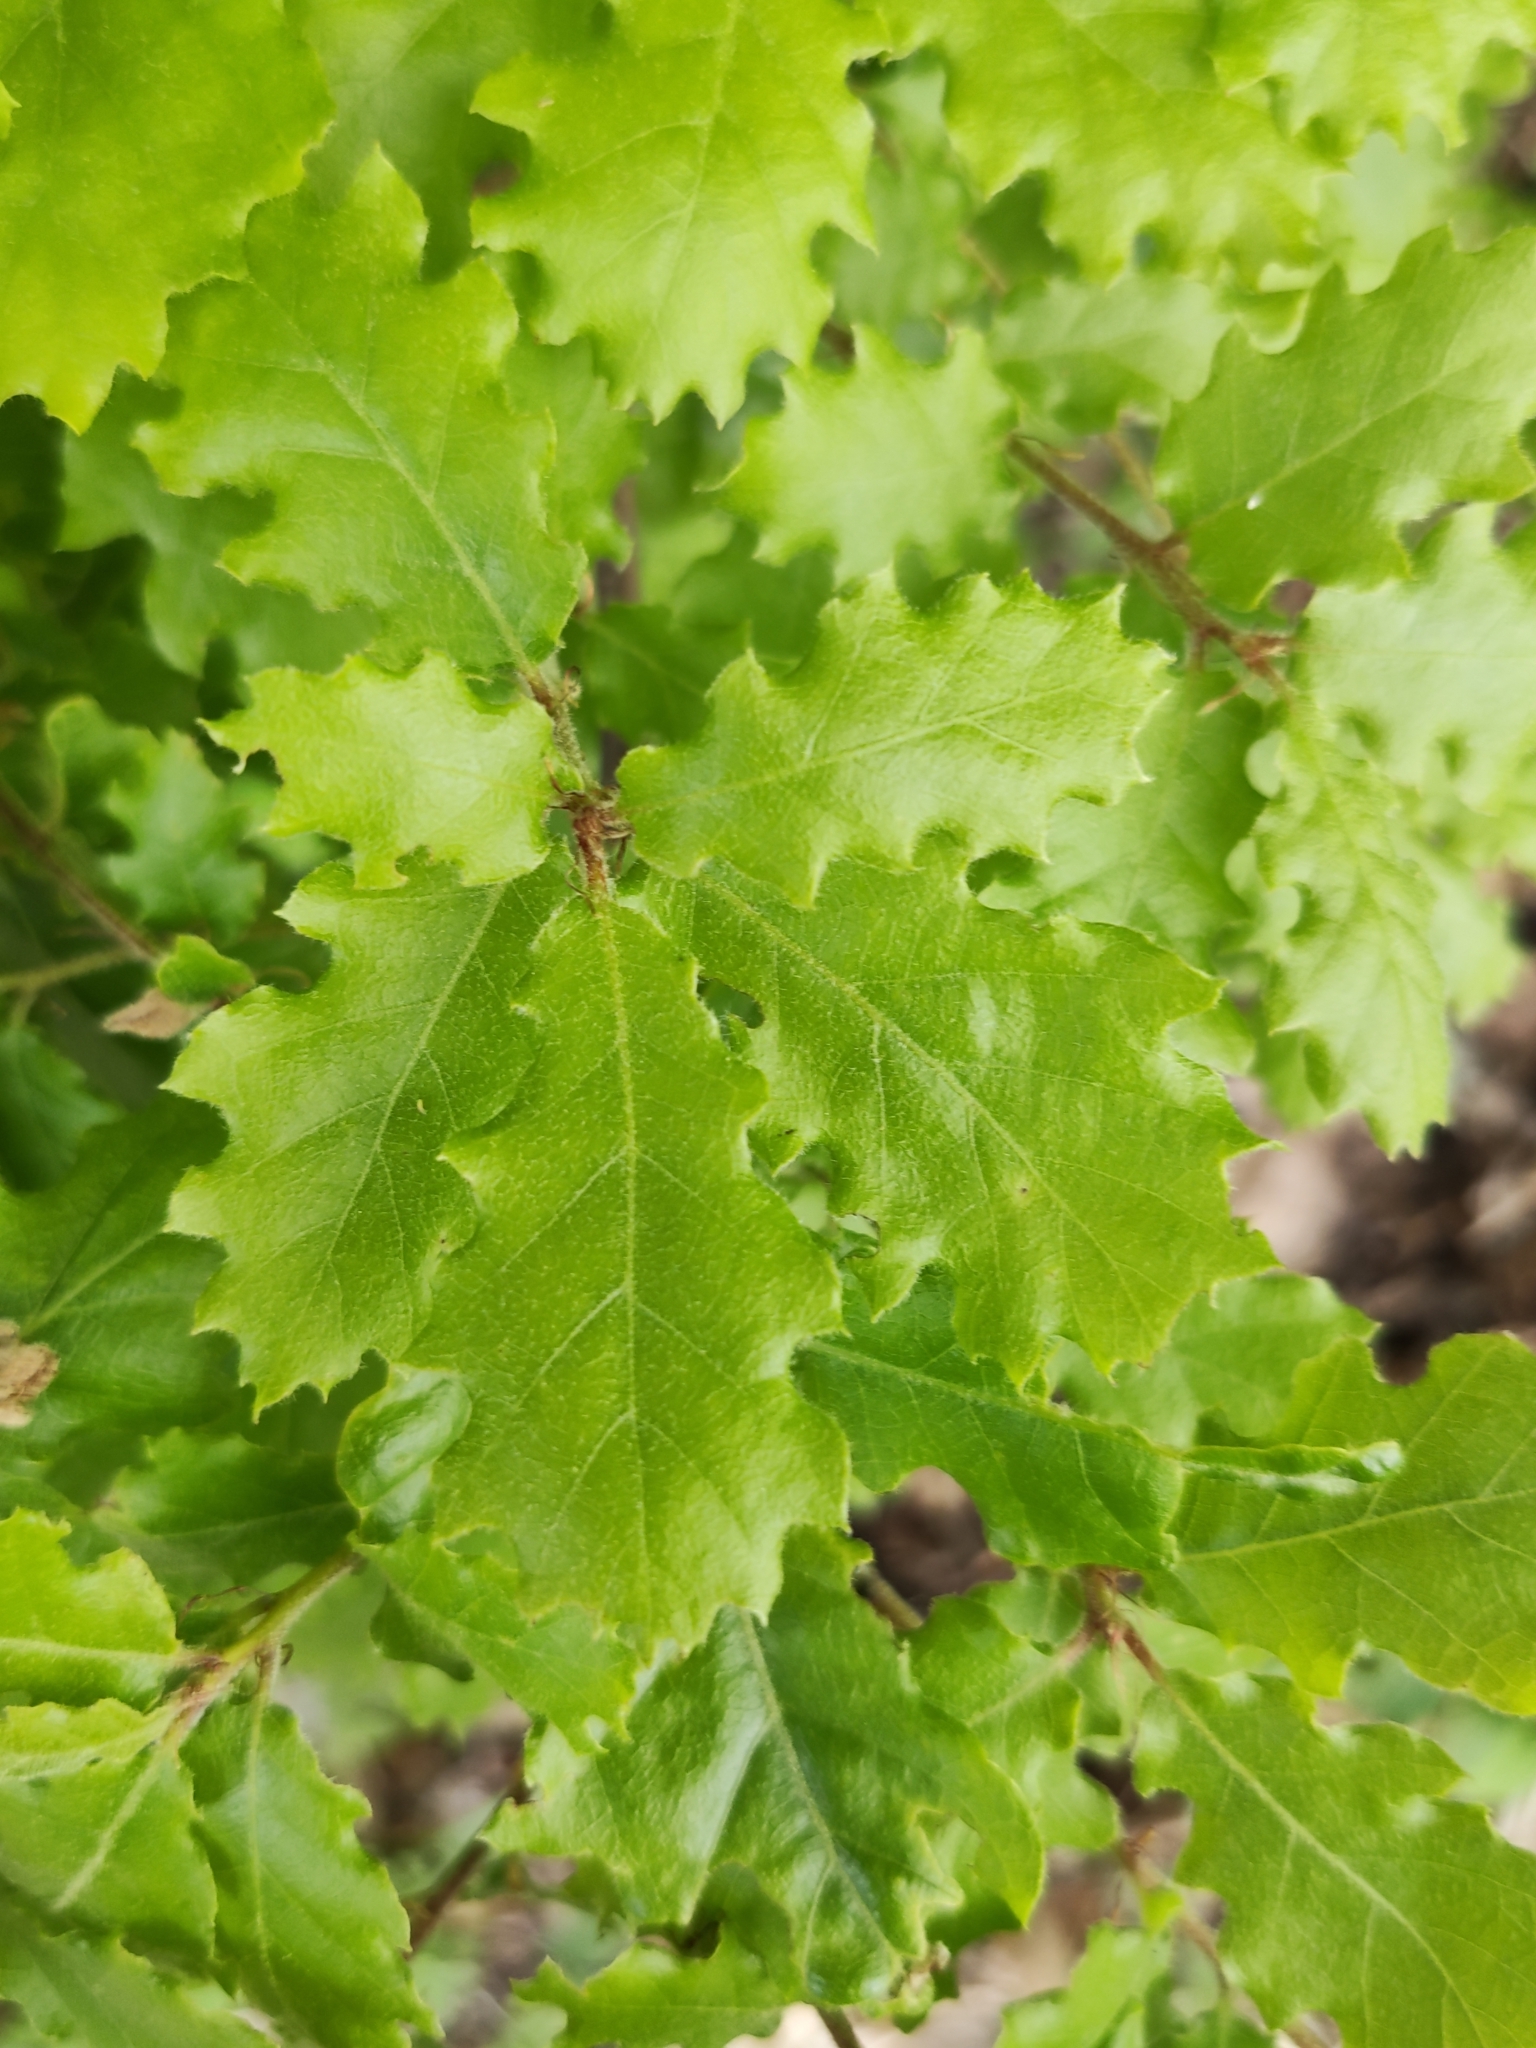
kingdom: Plantae
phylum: Tracheophyta
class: Magnoliopsida
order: Fagales
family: Fagaceae
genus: Quercus
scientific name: Quercus pubescens
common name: Downy oak
